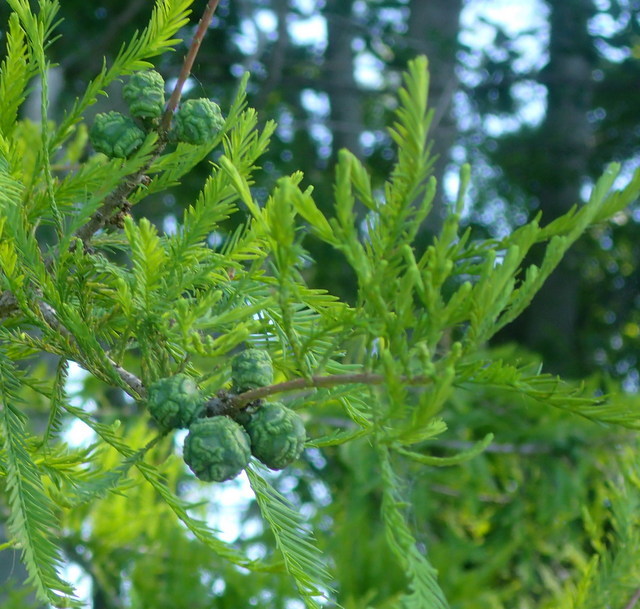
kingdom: Plantae
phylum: Tracheophyta
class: Pinopsida
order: Pinales
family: Cupressaceae
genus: Taxodium
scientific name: Taxodium distichum
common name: Bald cypress
